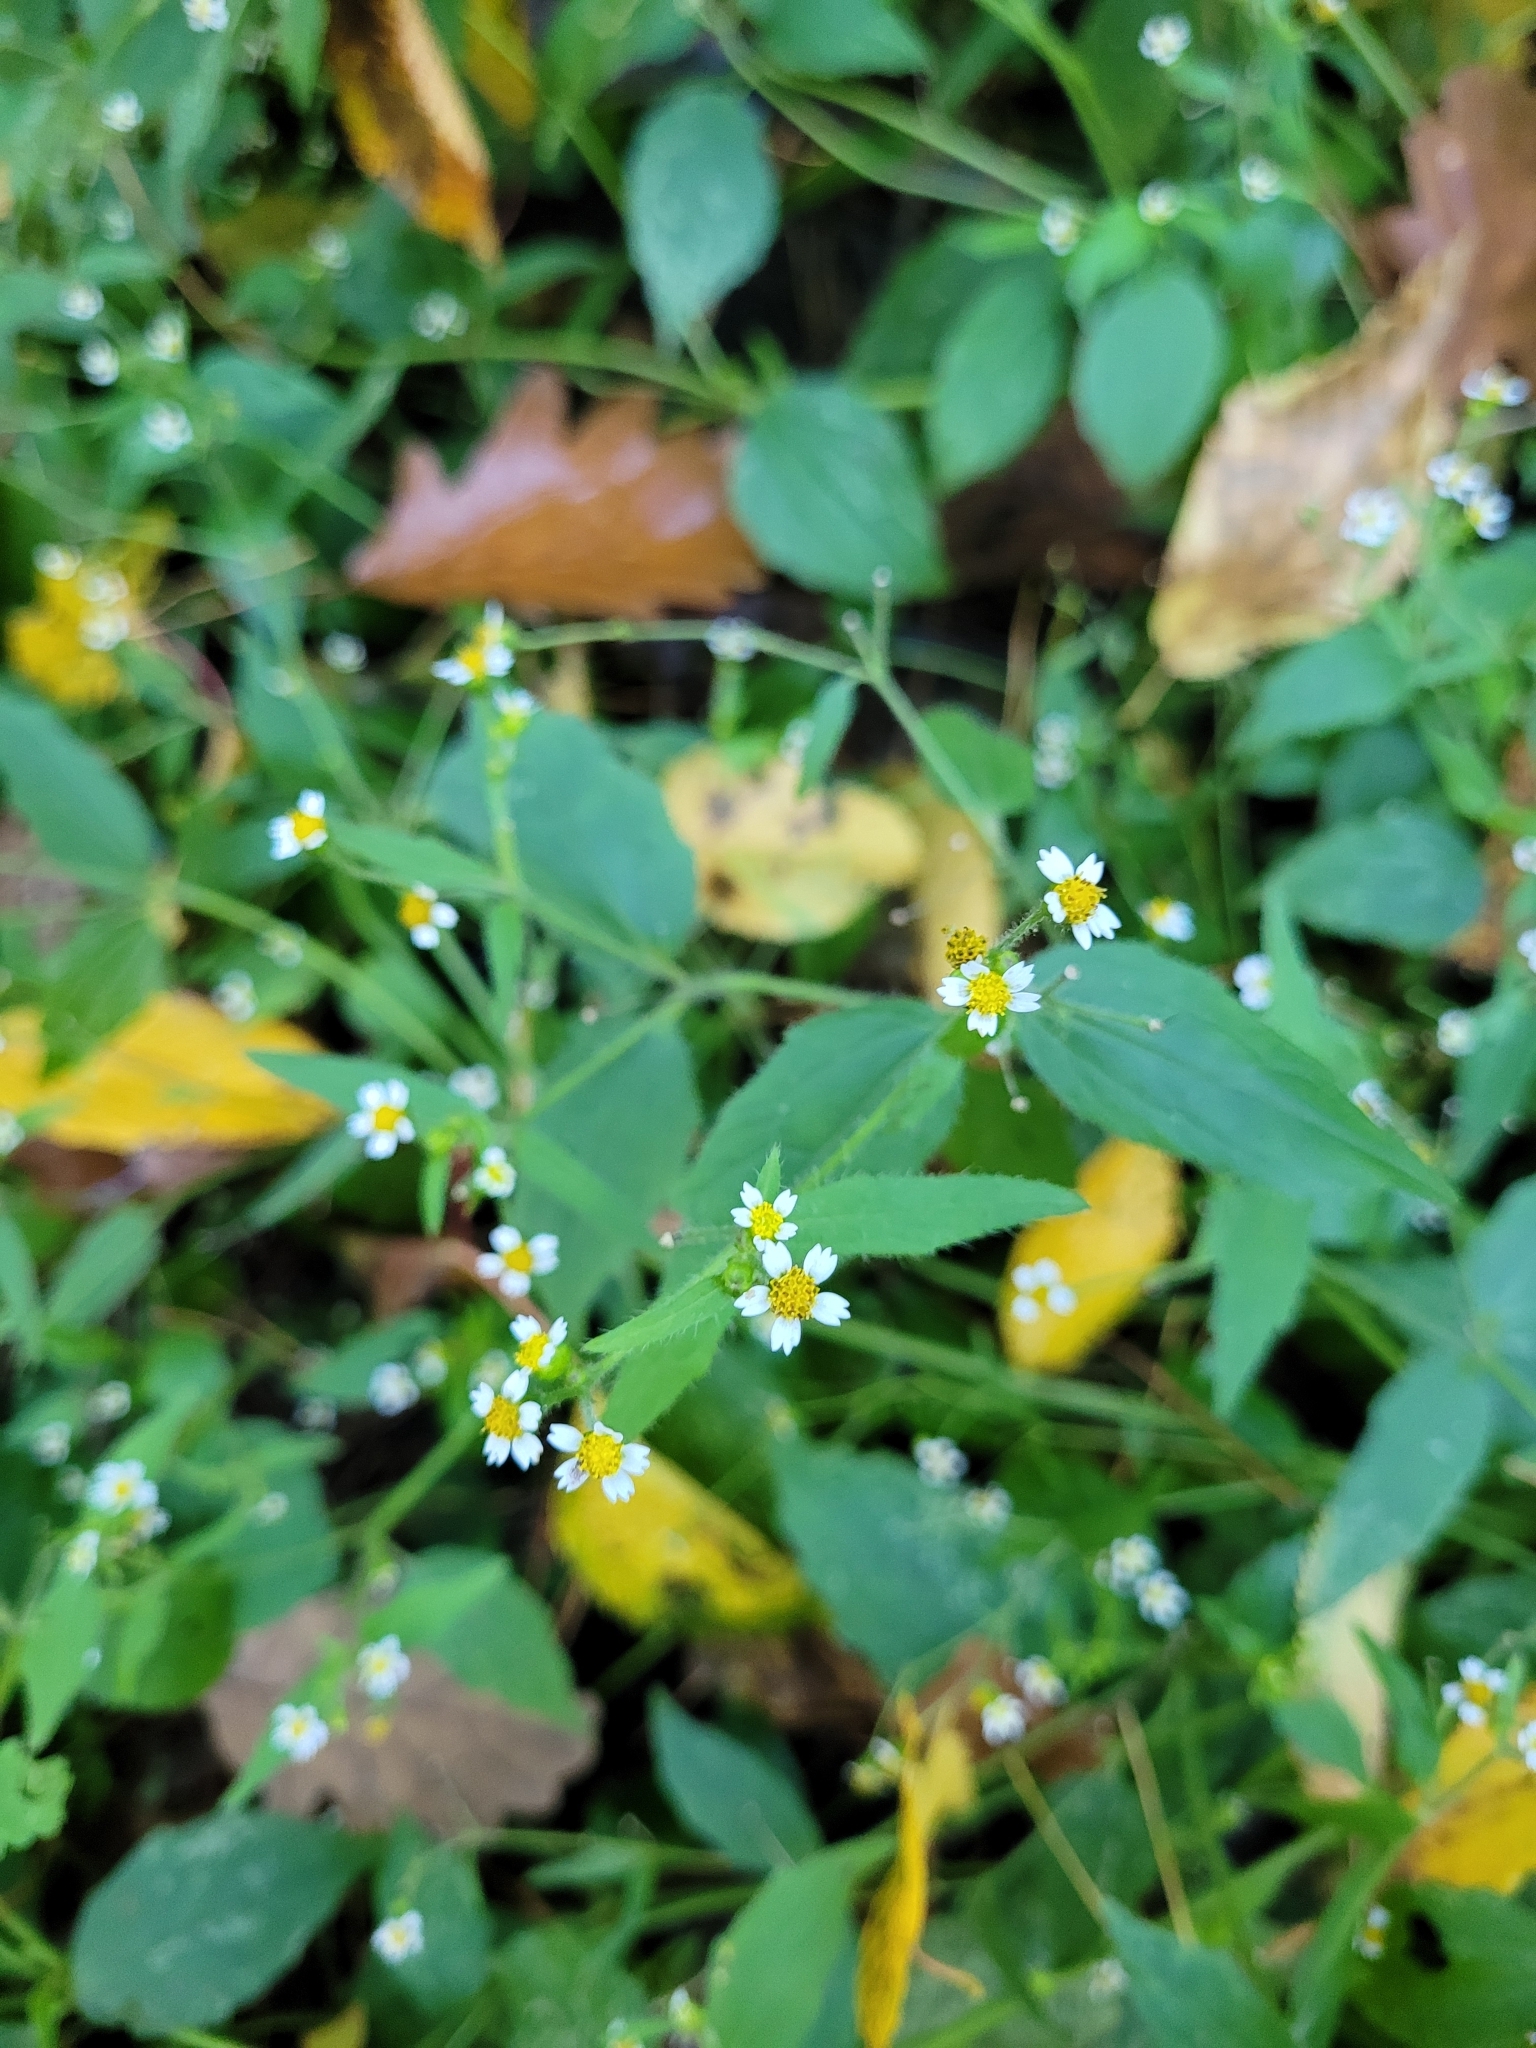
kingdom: Plantae
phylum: Tracheophyta
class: Magnoliopsida
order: Asterales
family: Asteraceae
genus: Galinsoga
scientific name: Galinsoga quadriradiata
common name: Shaggy soldier
